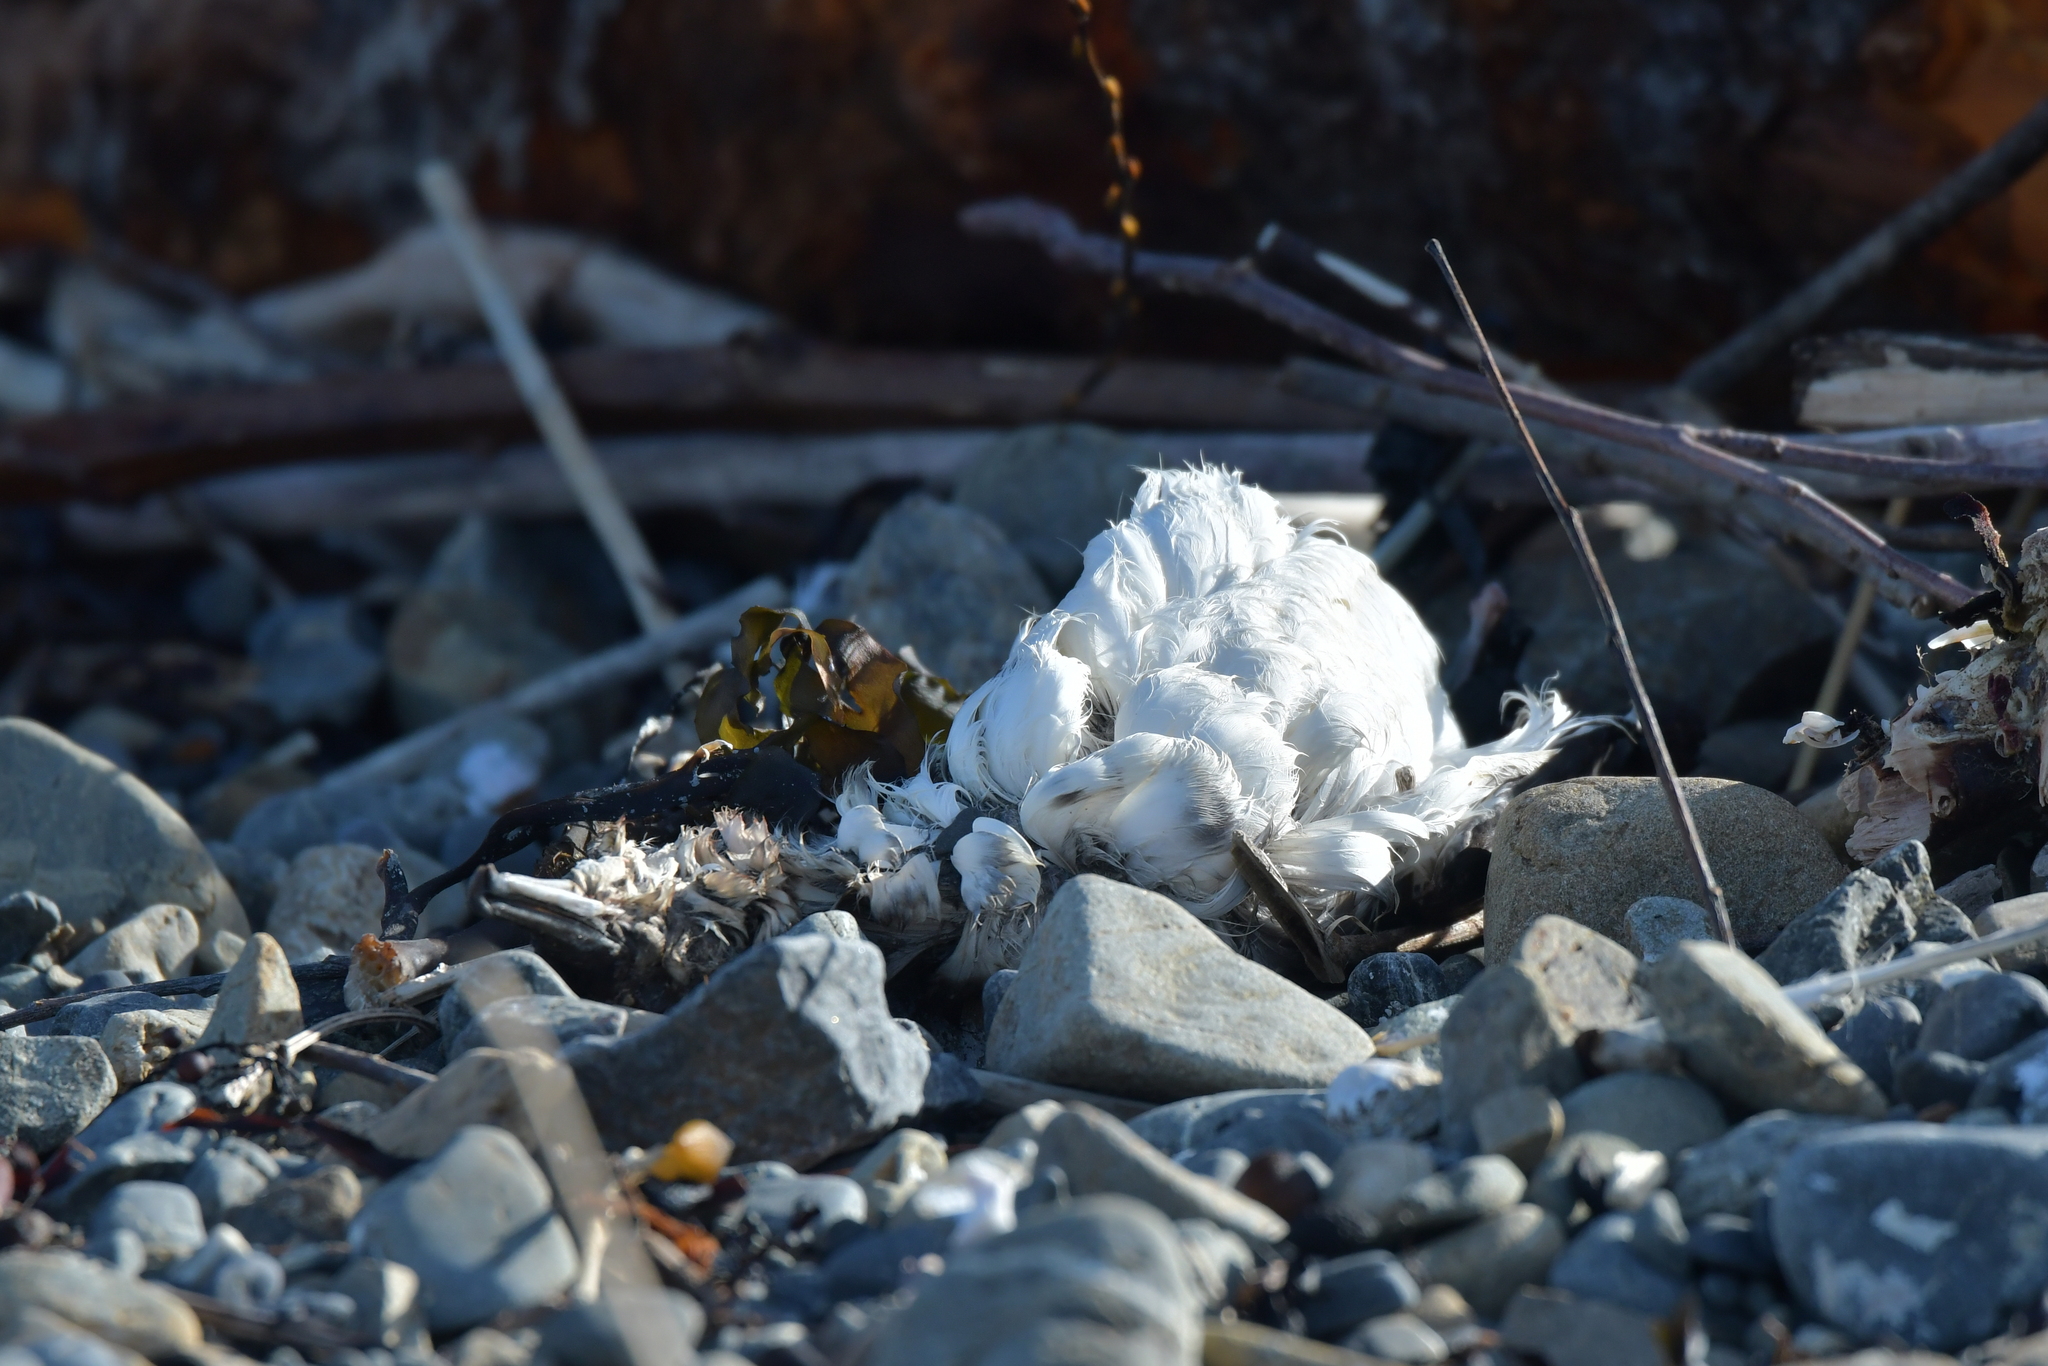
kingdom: Animalia
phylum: Chordata
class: Aves
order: Procellariiformes
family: Procellariidae
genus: Puffinus
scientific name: Puffinus gavia
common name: Fluttering shearwater
